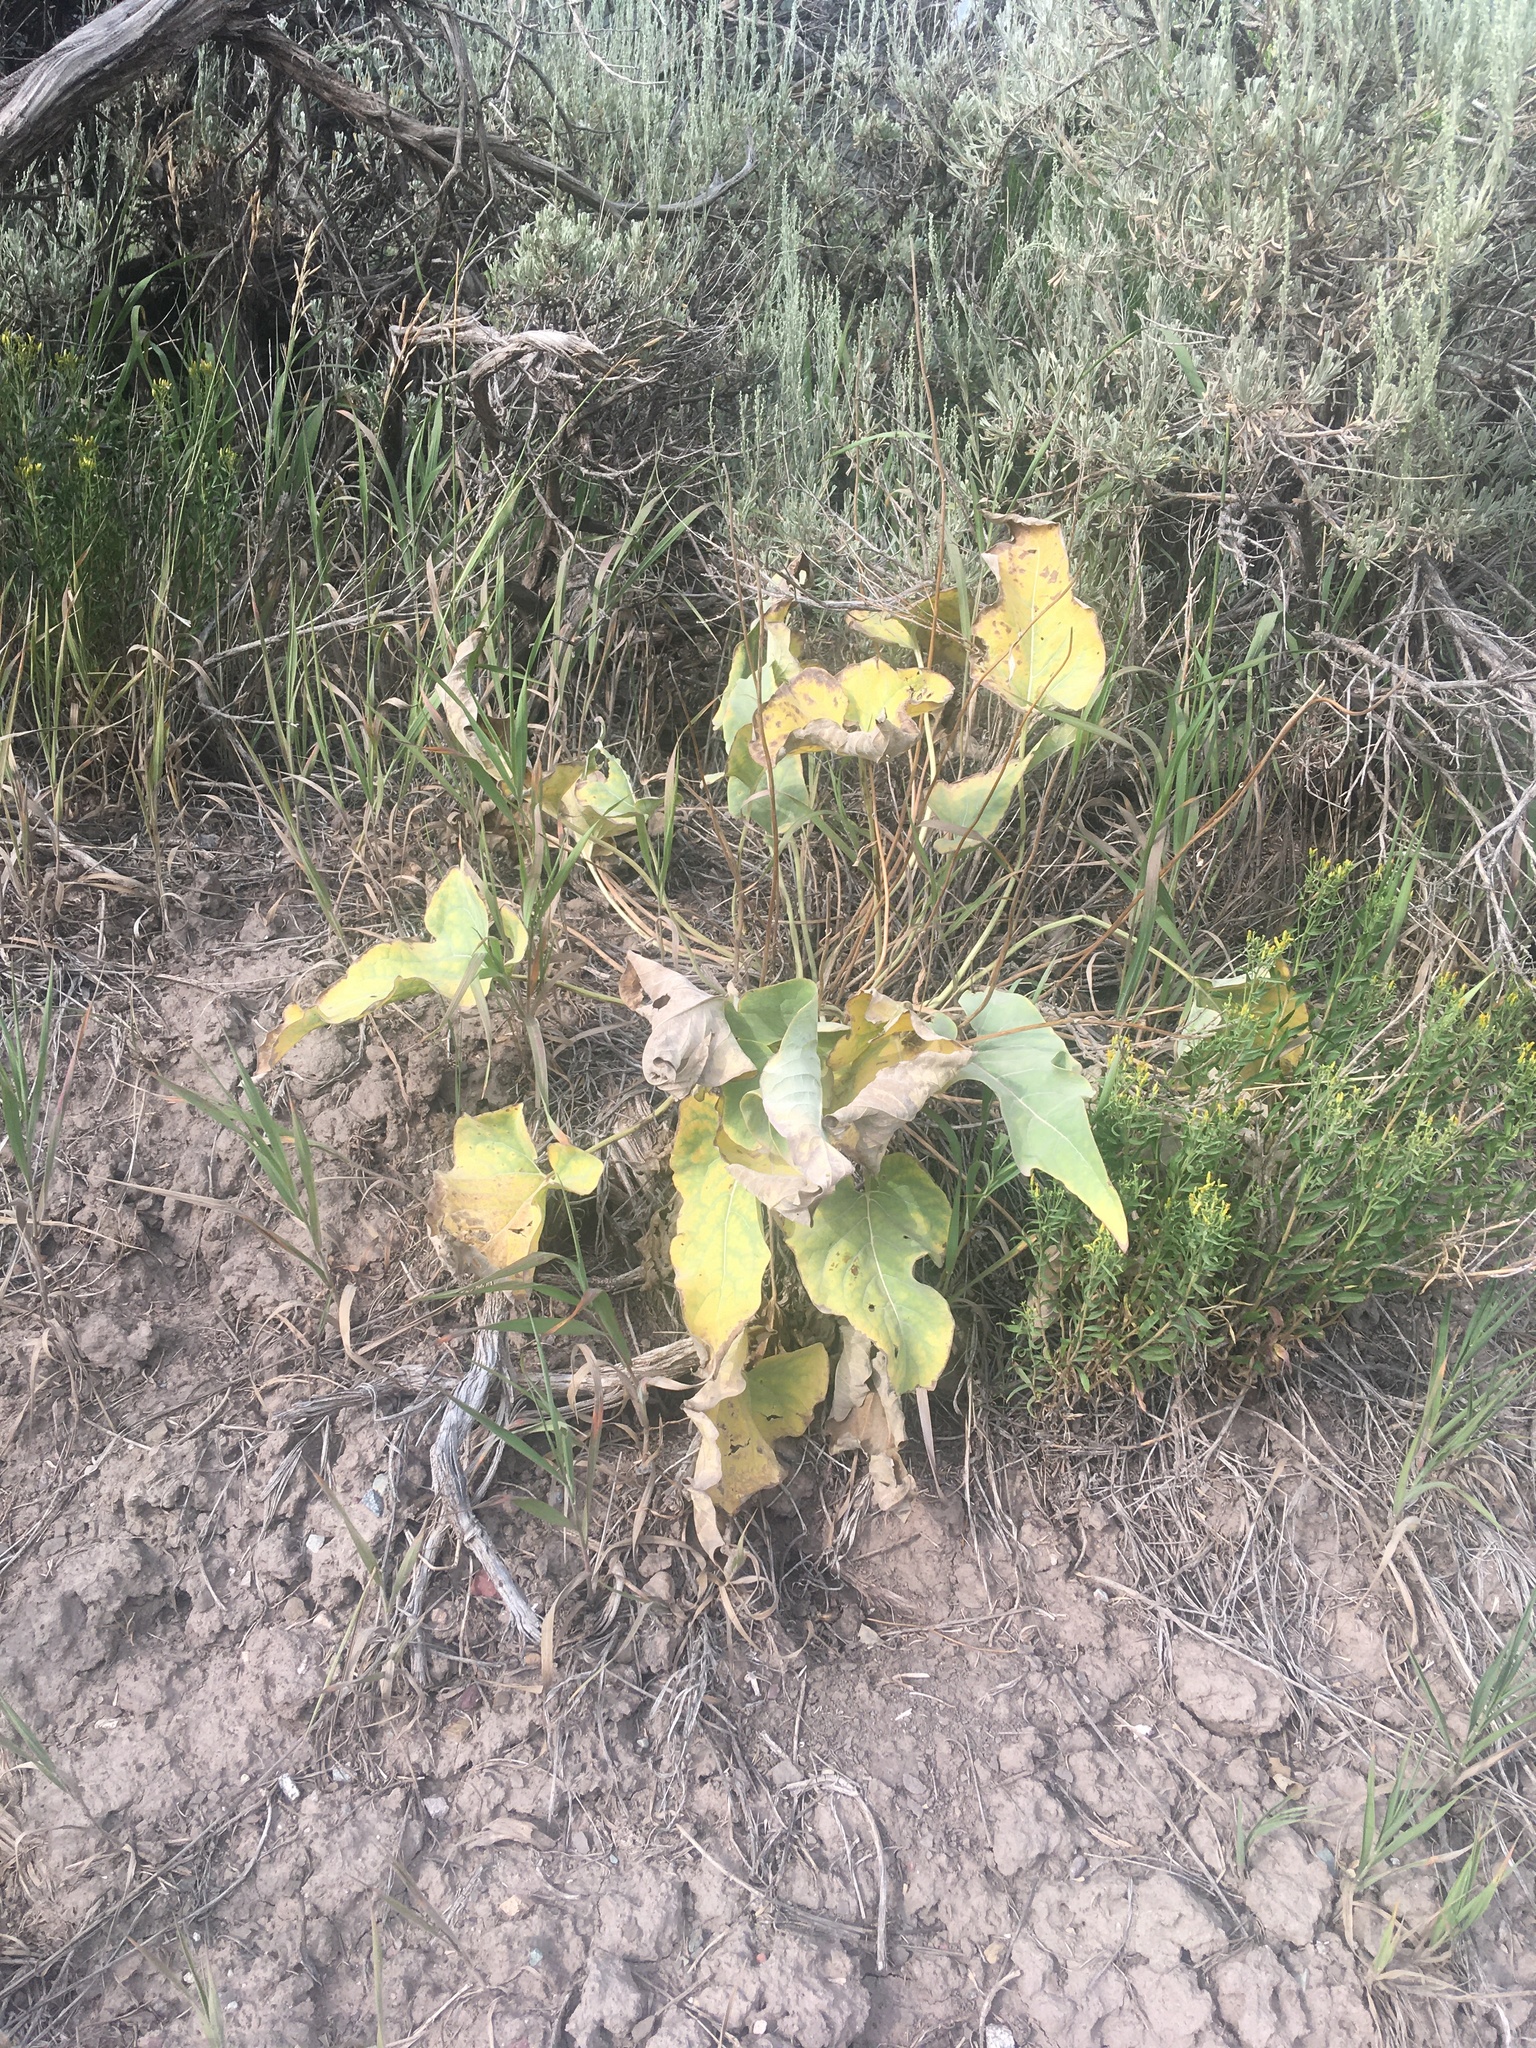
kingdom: Plantae
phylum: Tracheophyta
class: Magnoliopsida
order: Asterales
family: Asteraceae
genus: Wyethia
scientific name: Wyethia sagittata
